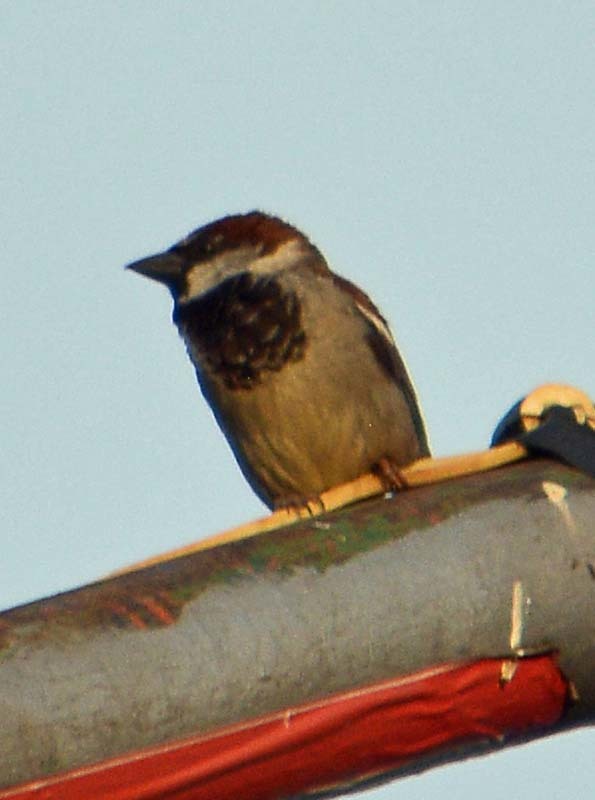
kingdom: Animalia
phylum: Chordata
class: Aves
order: Passeriformes
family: Passeridae
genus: Passer
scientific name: Passer domesticus
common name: House sparrow
